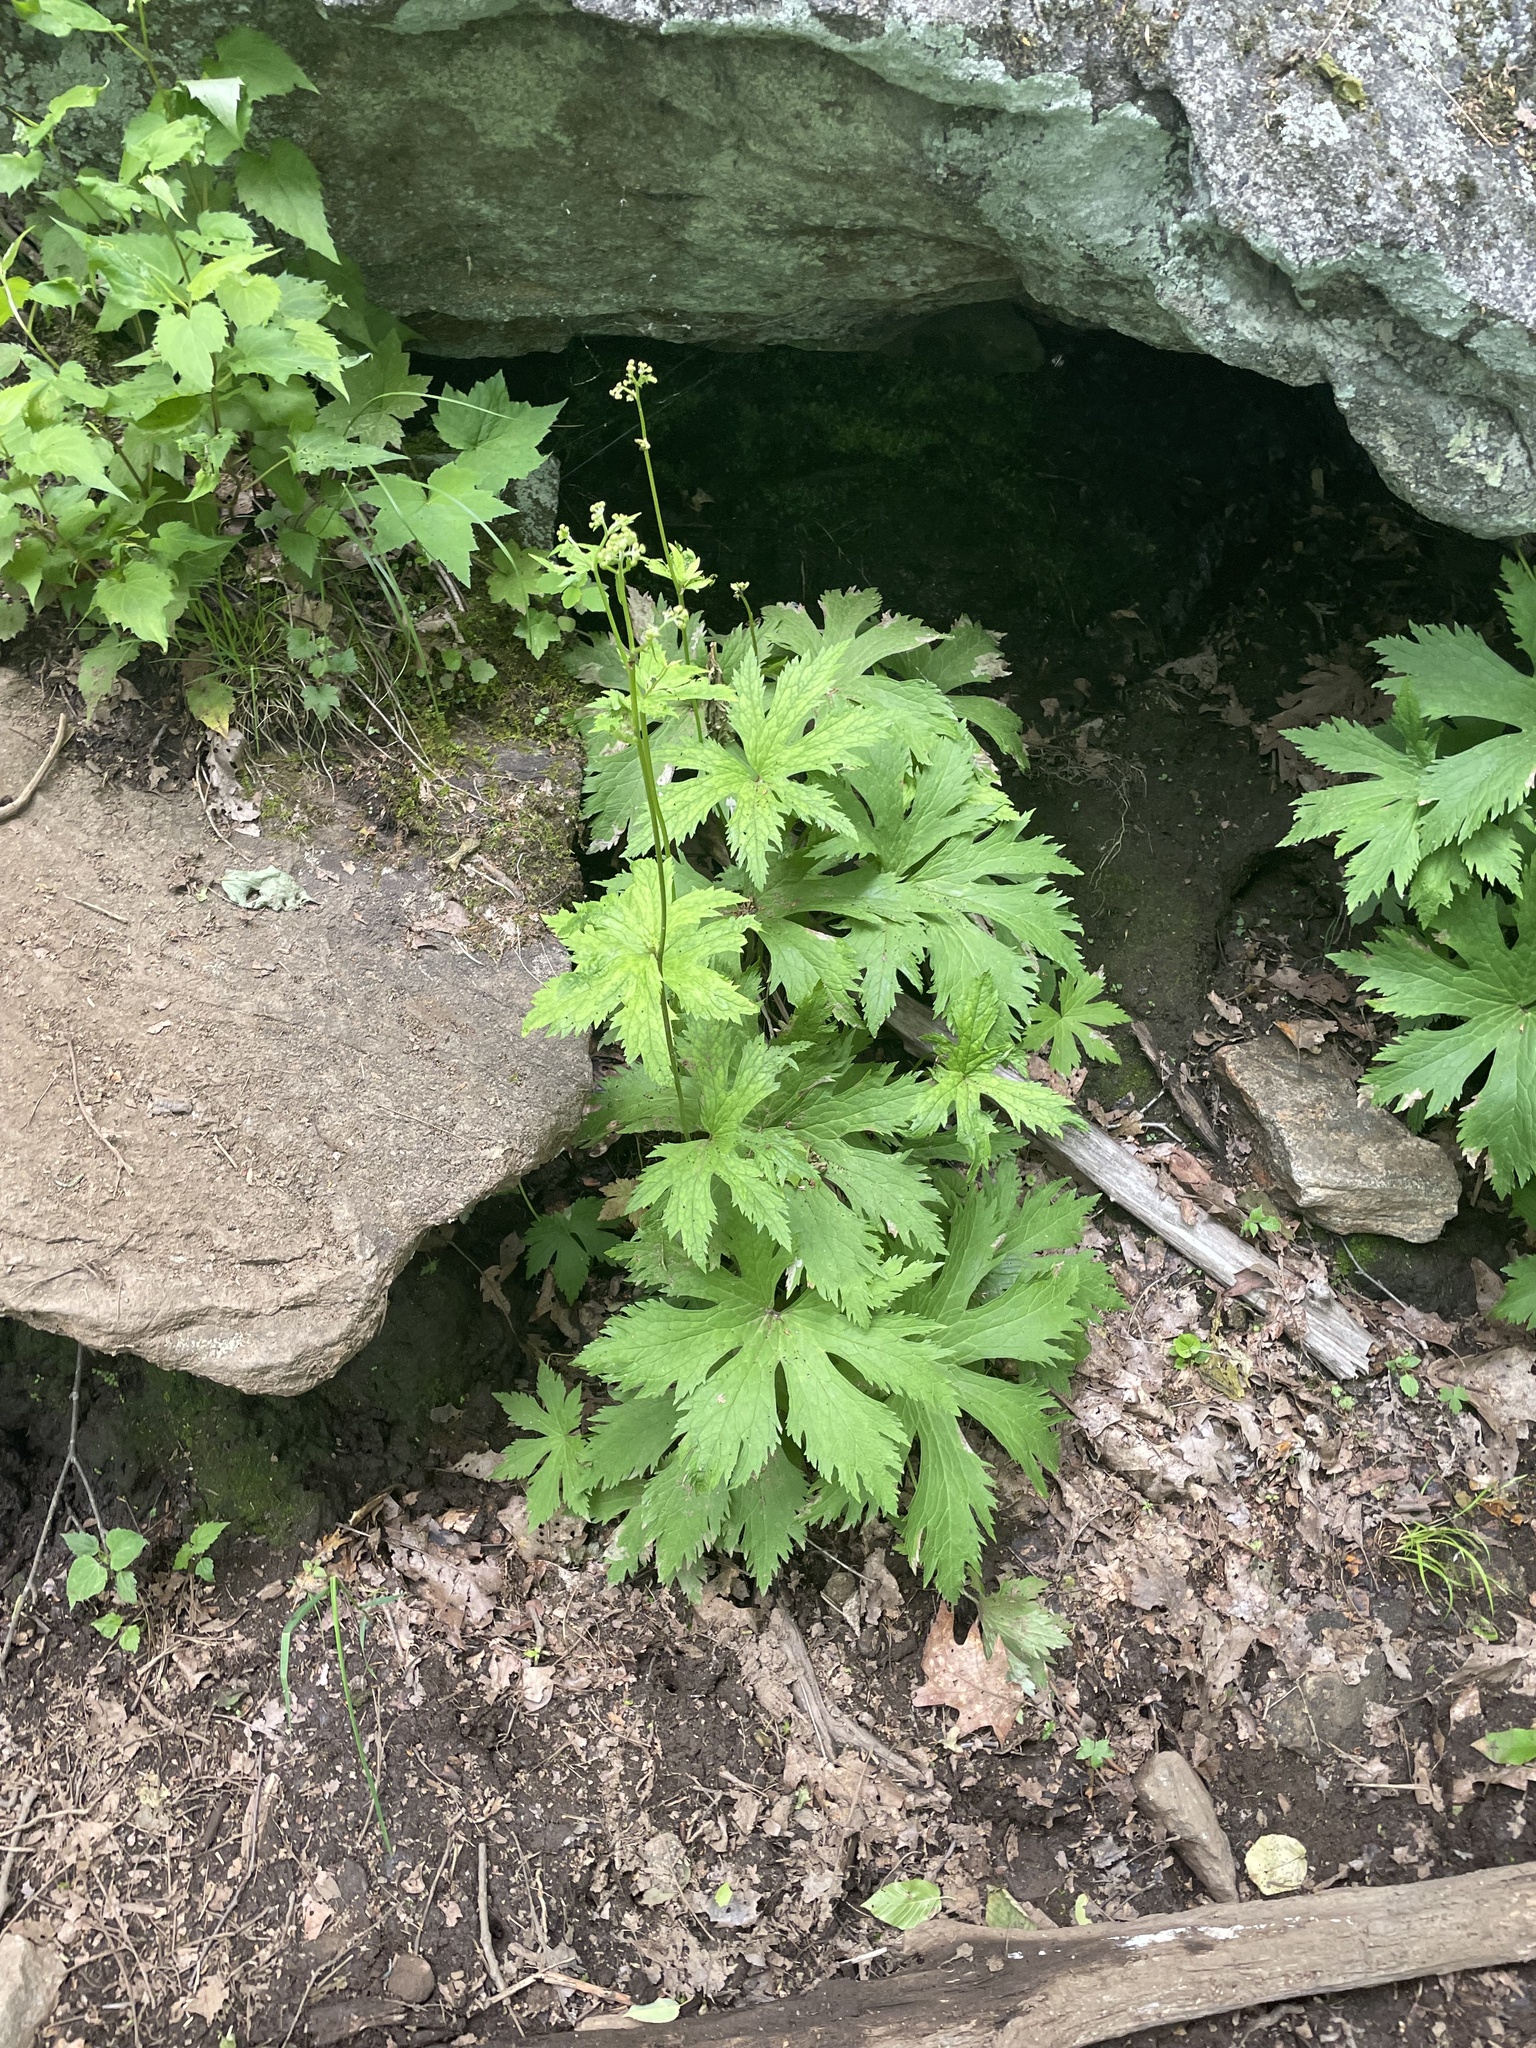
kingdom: Plantae
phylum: Tracheophyta
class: Magnoliopsida
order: Ranunculales
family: Ranunculaceae
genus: Trautvetteria
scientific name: Trautvetteria carolinensis
